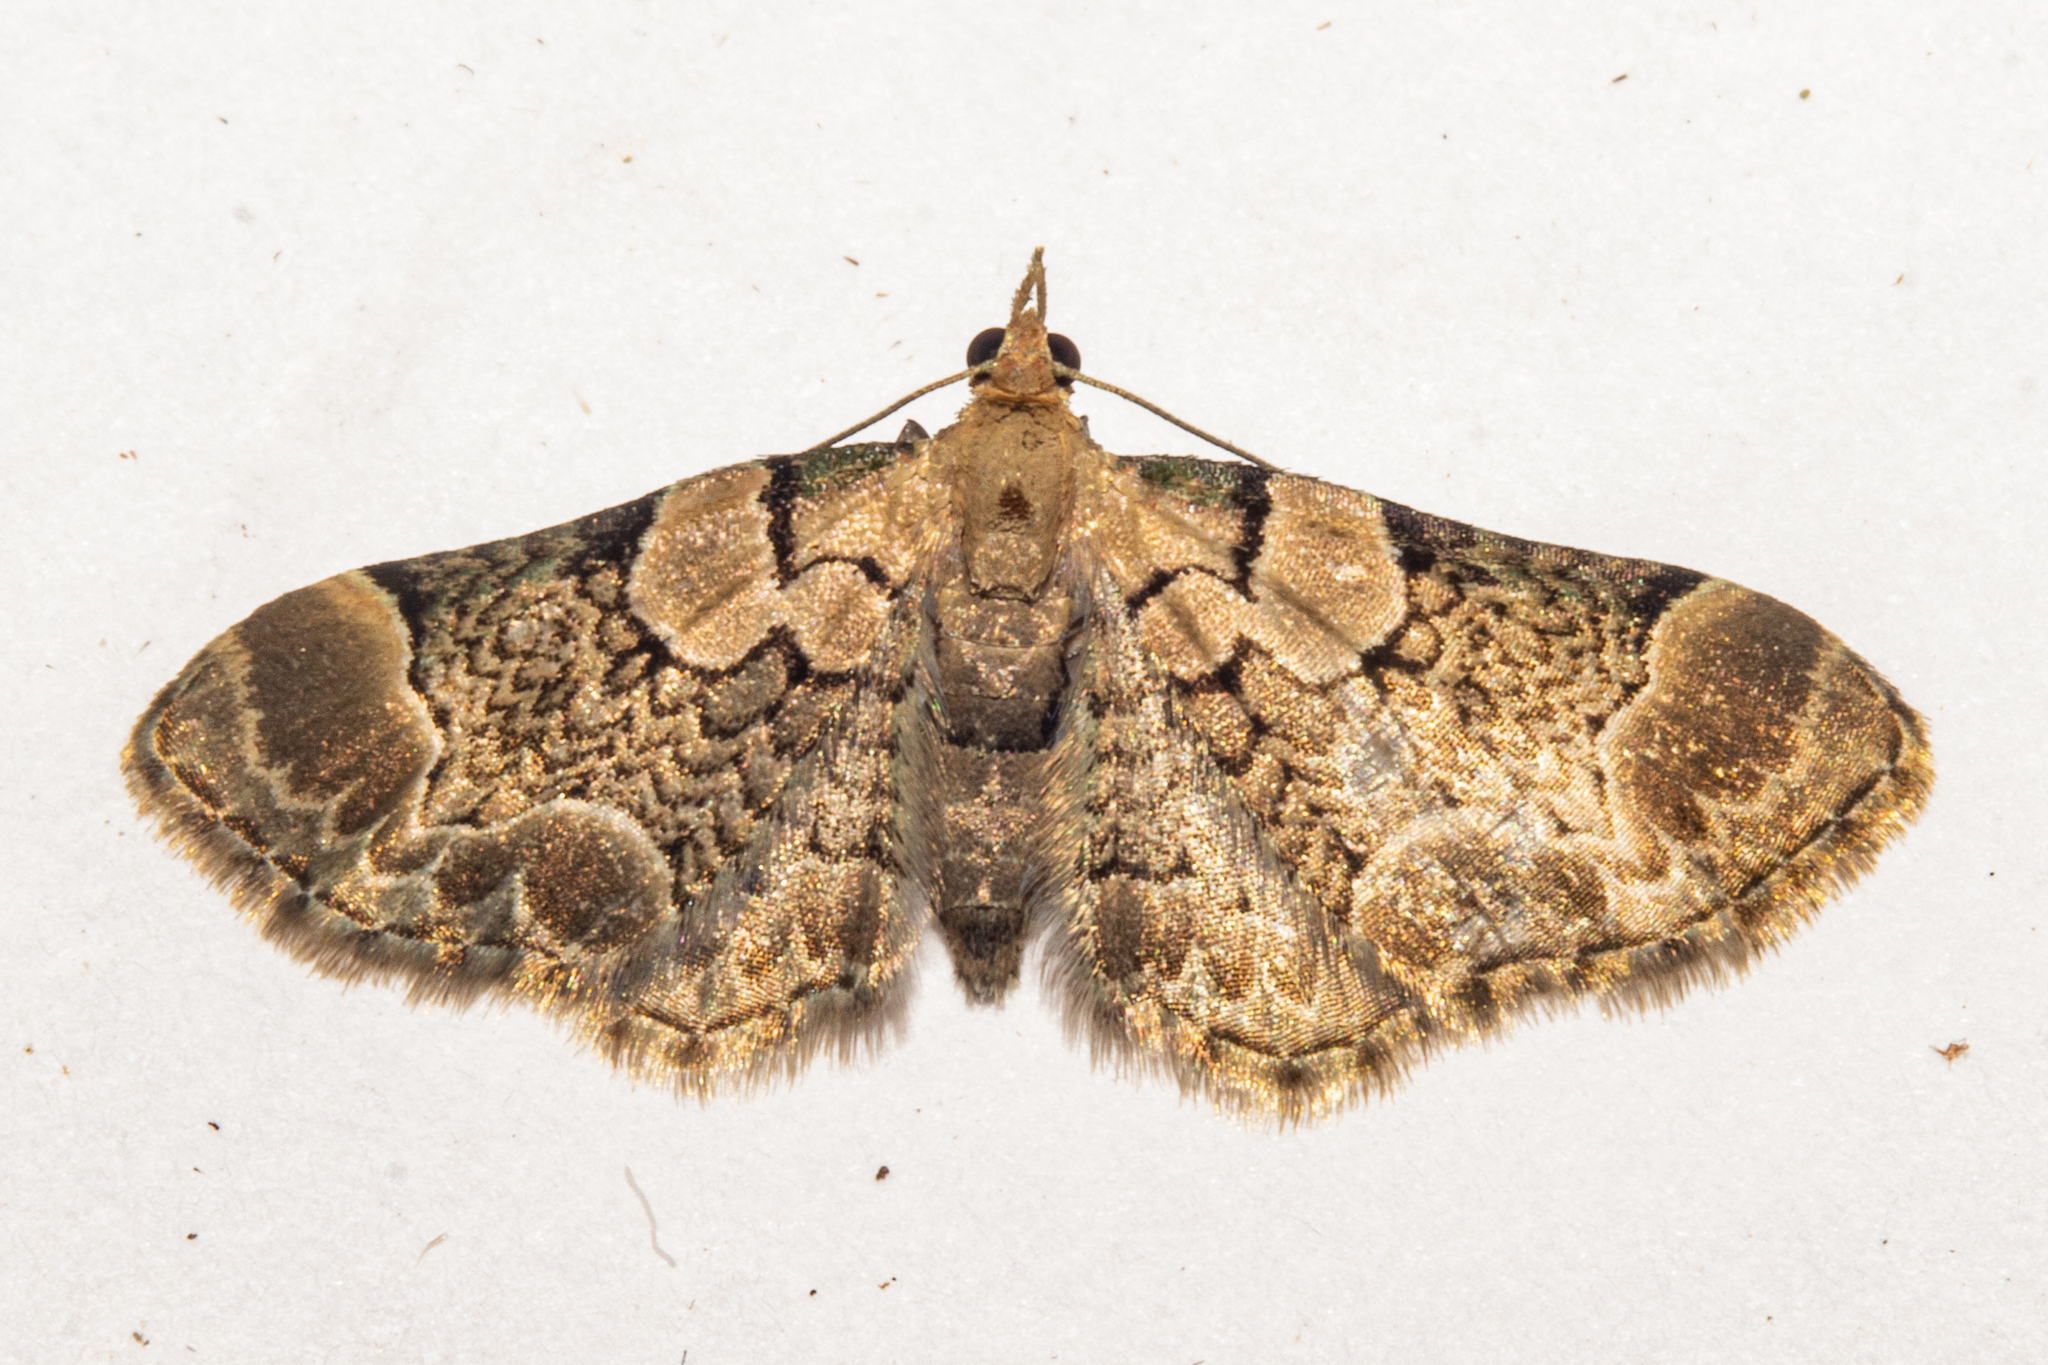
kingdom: Animalia
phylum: Arthropoda
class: Insecta
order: Lepidoptera
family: Geometridae
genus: Chloroclystis
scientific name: Chloroclystis
